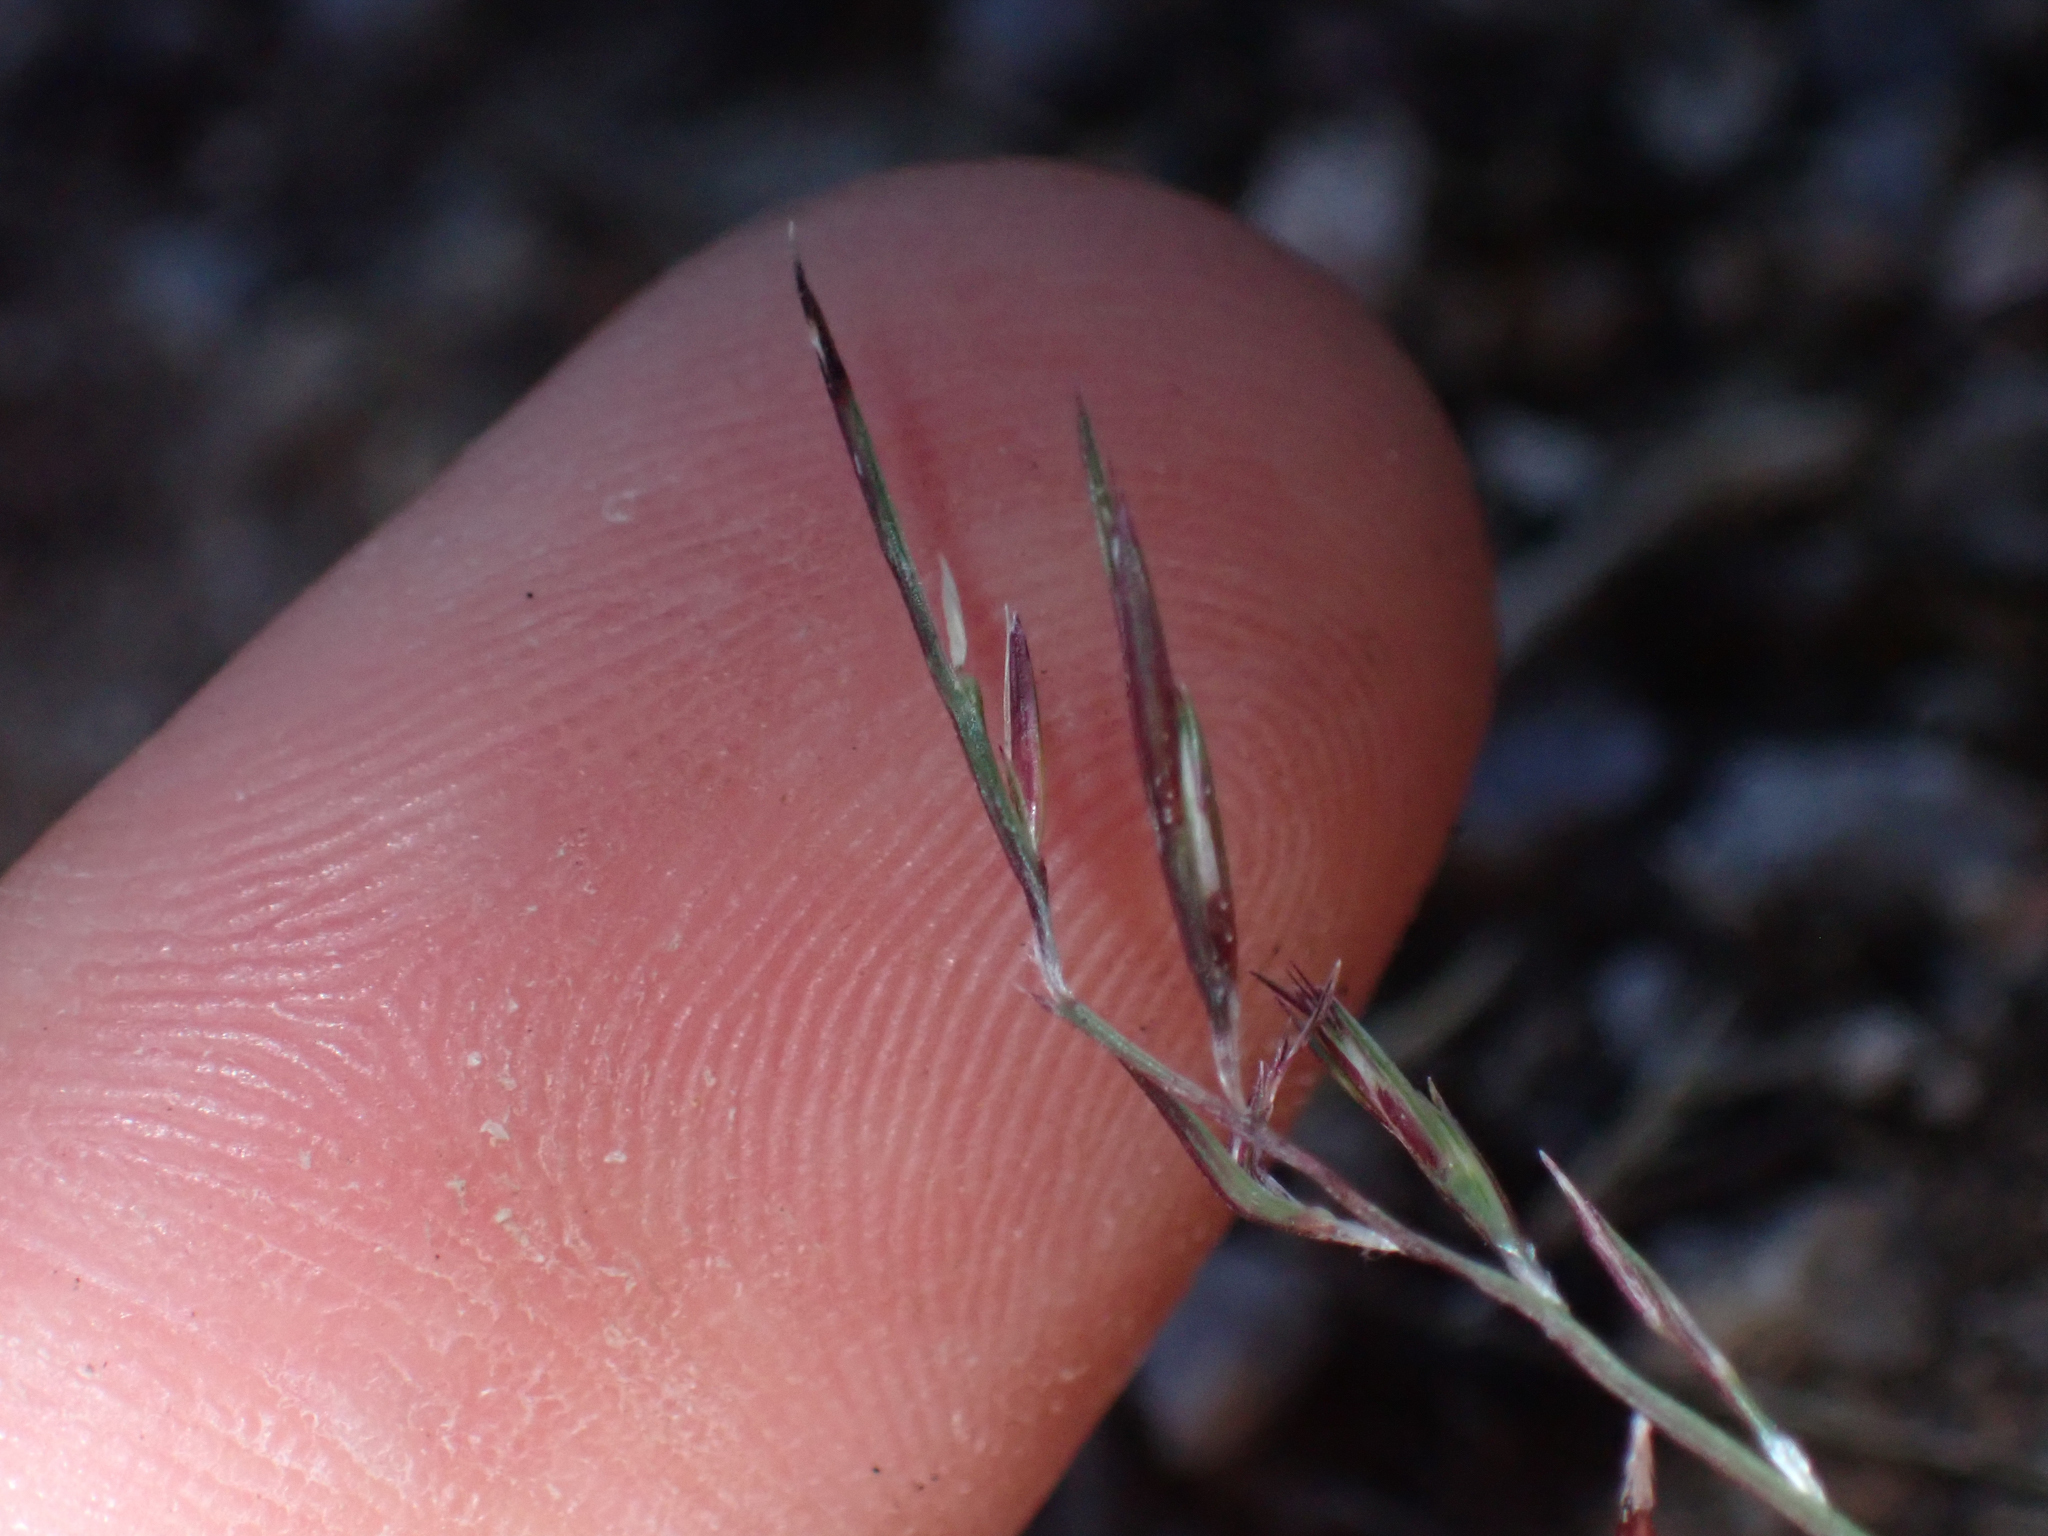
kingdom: Plantae
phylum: Tracheophyta
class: Liliopsida
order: Poales
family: Poaceae
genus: Bouteloua
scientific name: Bouteloua aristidoides
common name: Needle grama
